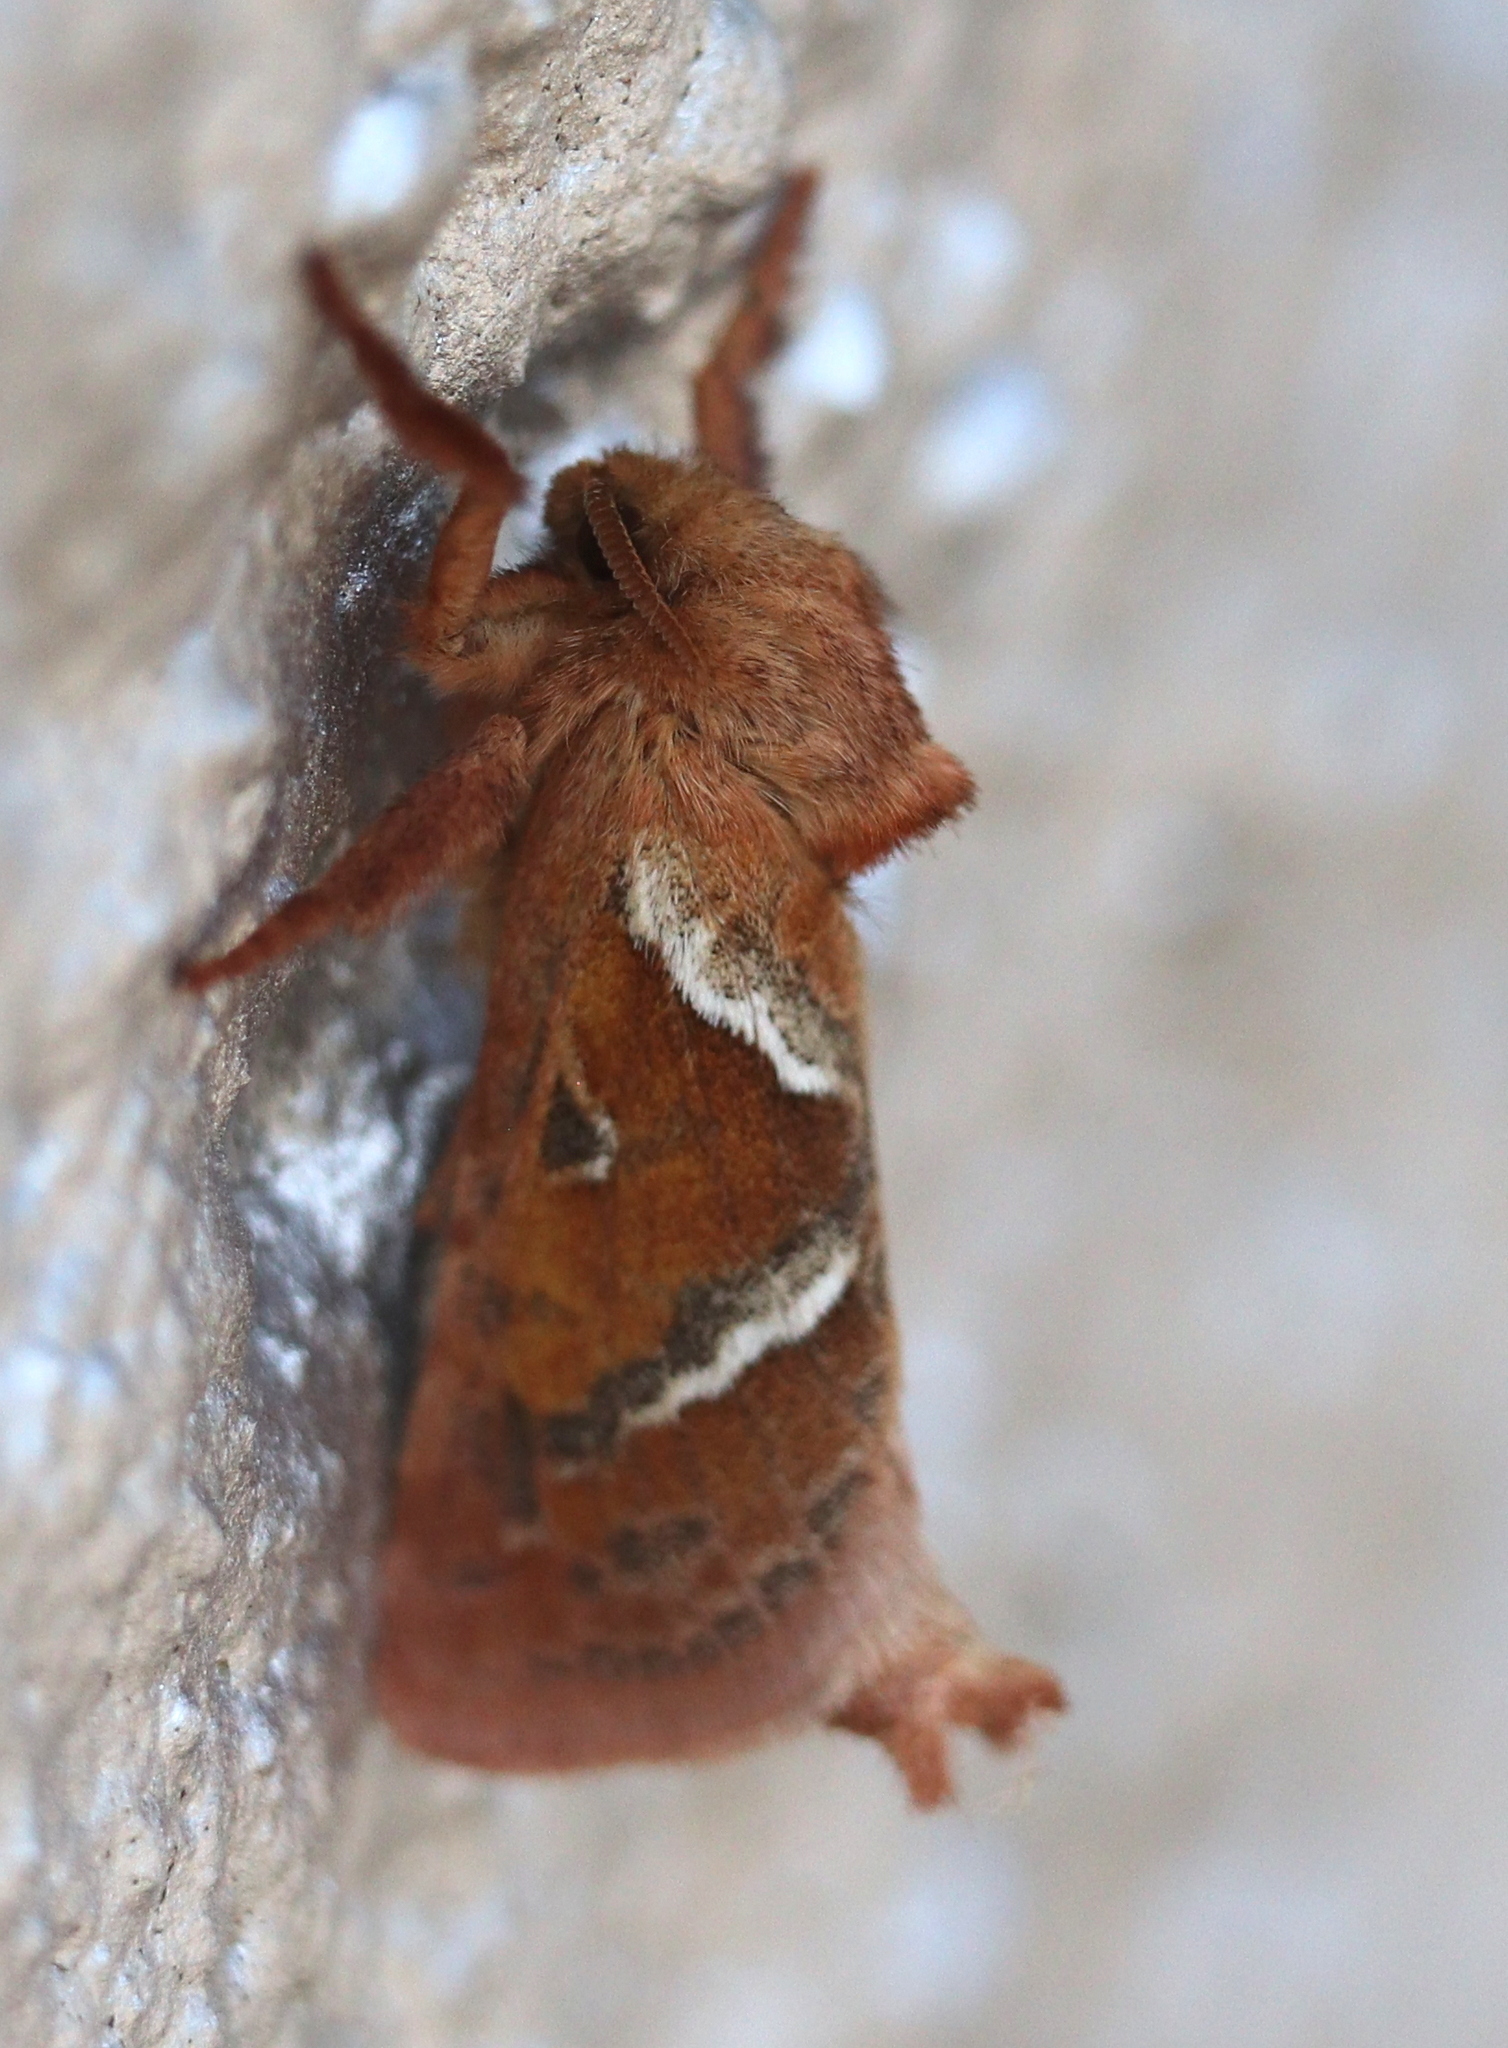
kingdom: Animalia
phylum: Arthropoda
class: Insecta
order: Lepidoptera
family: Hepialidae
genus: Triodia
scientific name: Triodia sylvina
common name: Orange swift
